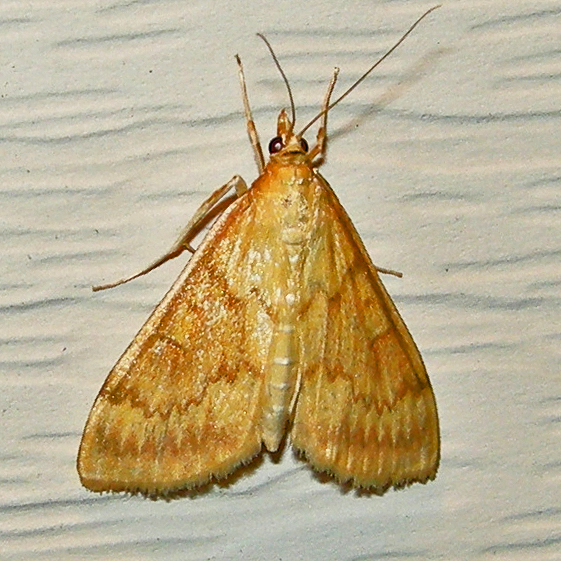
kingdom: Animalia
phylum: Arthropoda
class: Insecta
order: Lepidoptera
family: Crambidae
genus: Ostrinia
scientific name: Ostrinia nubilalis
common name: European corn borer
